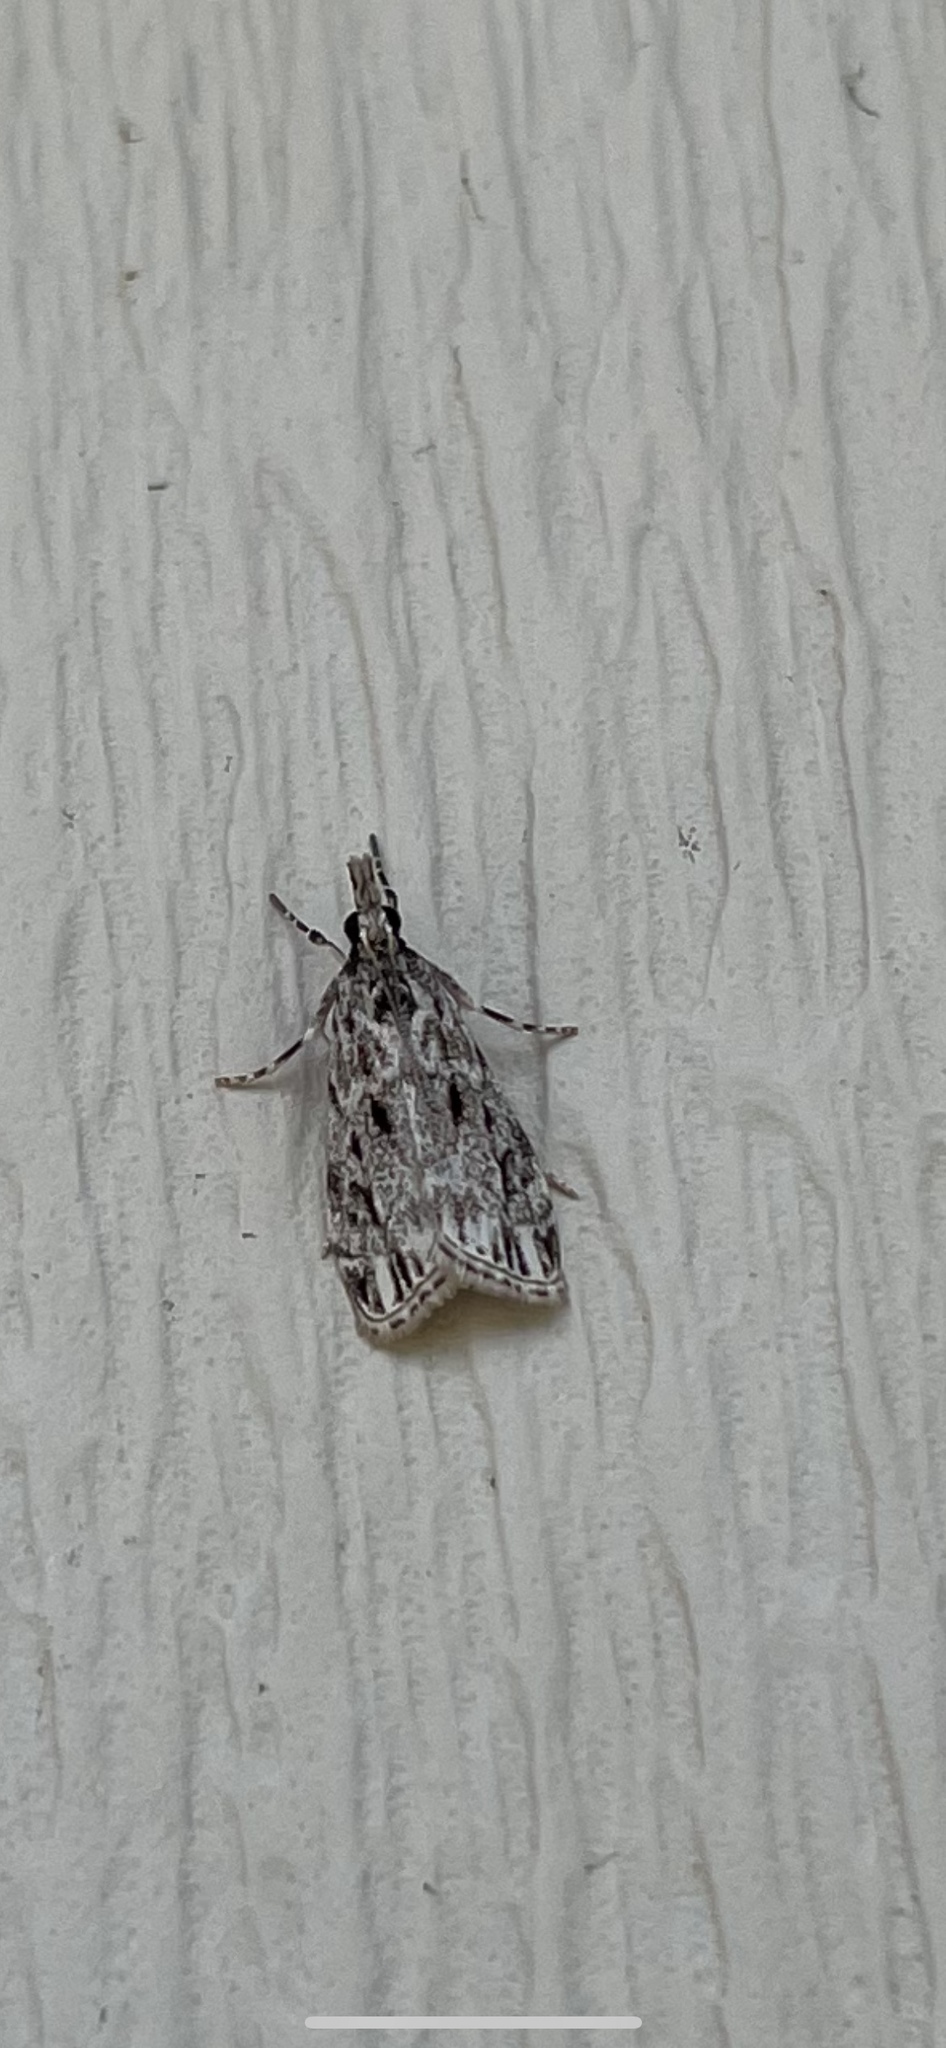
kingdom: Animalia
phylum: Arthropoda
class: Insecta
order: Lepidoptera
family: Crambidae
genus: Eudonia
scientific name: Eudonia strigalis
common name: Striped eudonia moth
